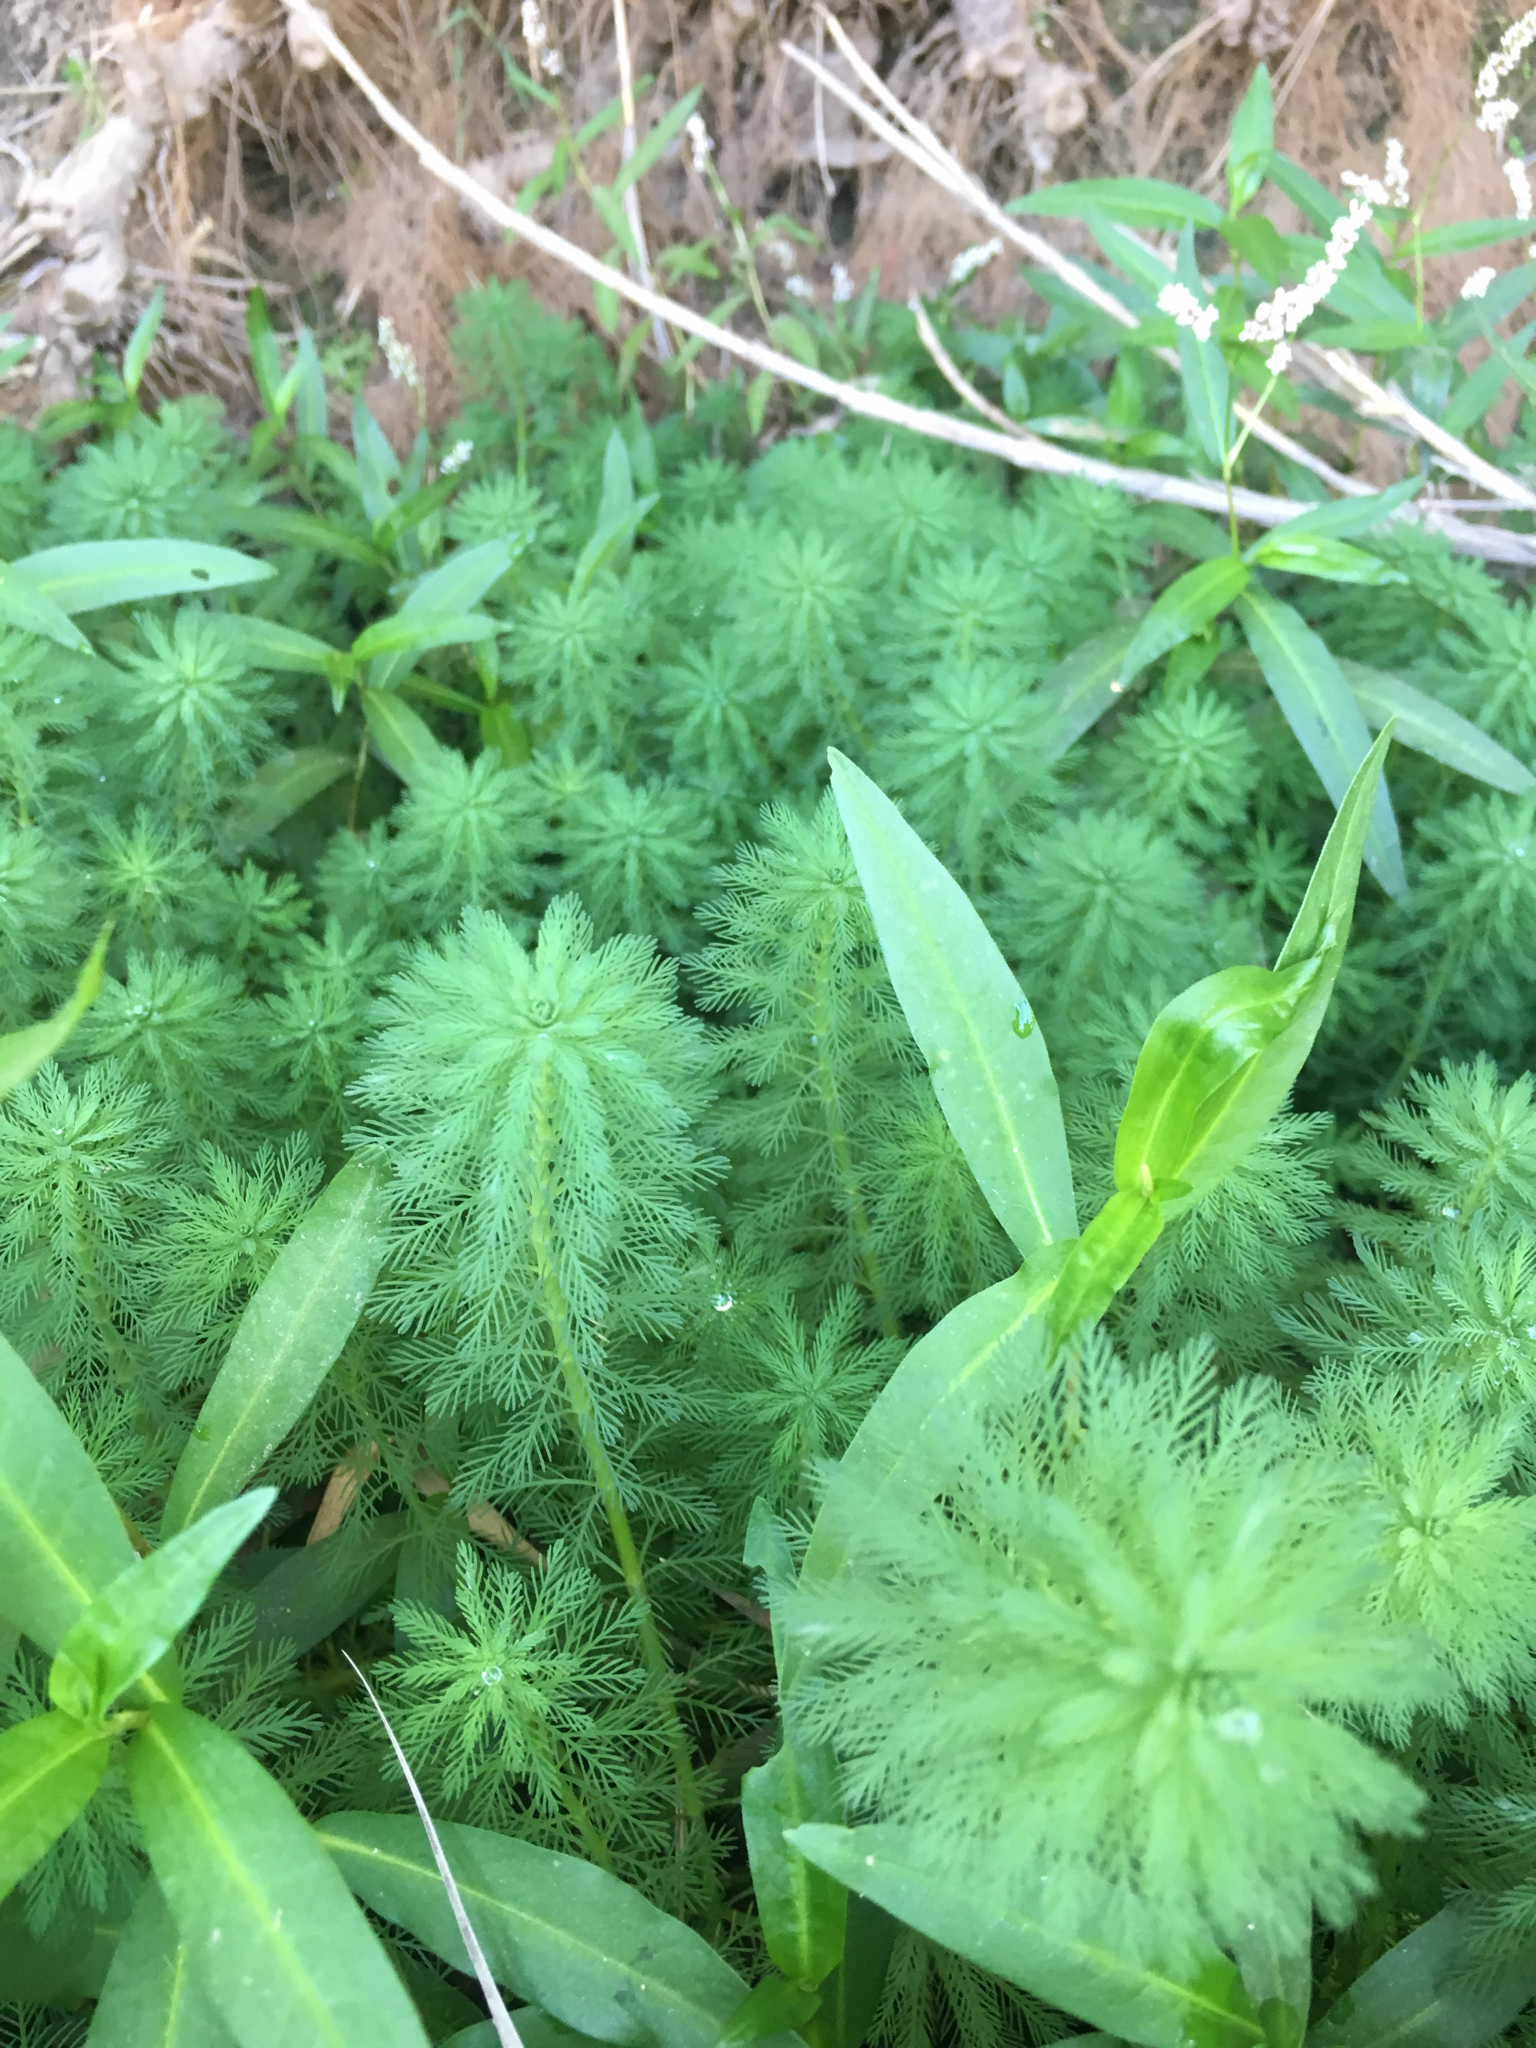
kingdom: Plantae
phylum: Tracheophyta
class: Magnoliopsida
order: Saxifragales
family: Haloragaceae
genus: Myriophyllum
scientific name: Myriophyllum aquaticum
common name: Parrot's feather
